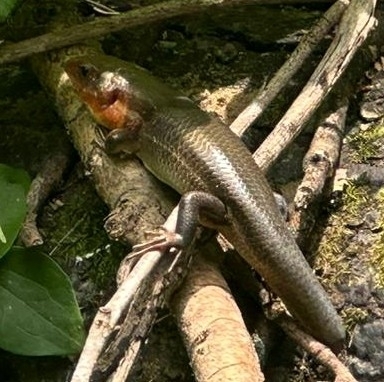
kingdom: Animalia
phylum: Chordata
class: Squamata
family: Scincidae
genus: Plestiodon
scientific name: Plestiodon laticeps
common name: Broadhead skink
